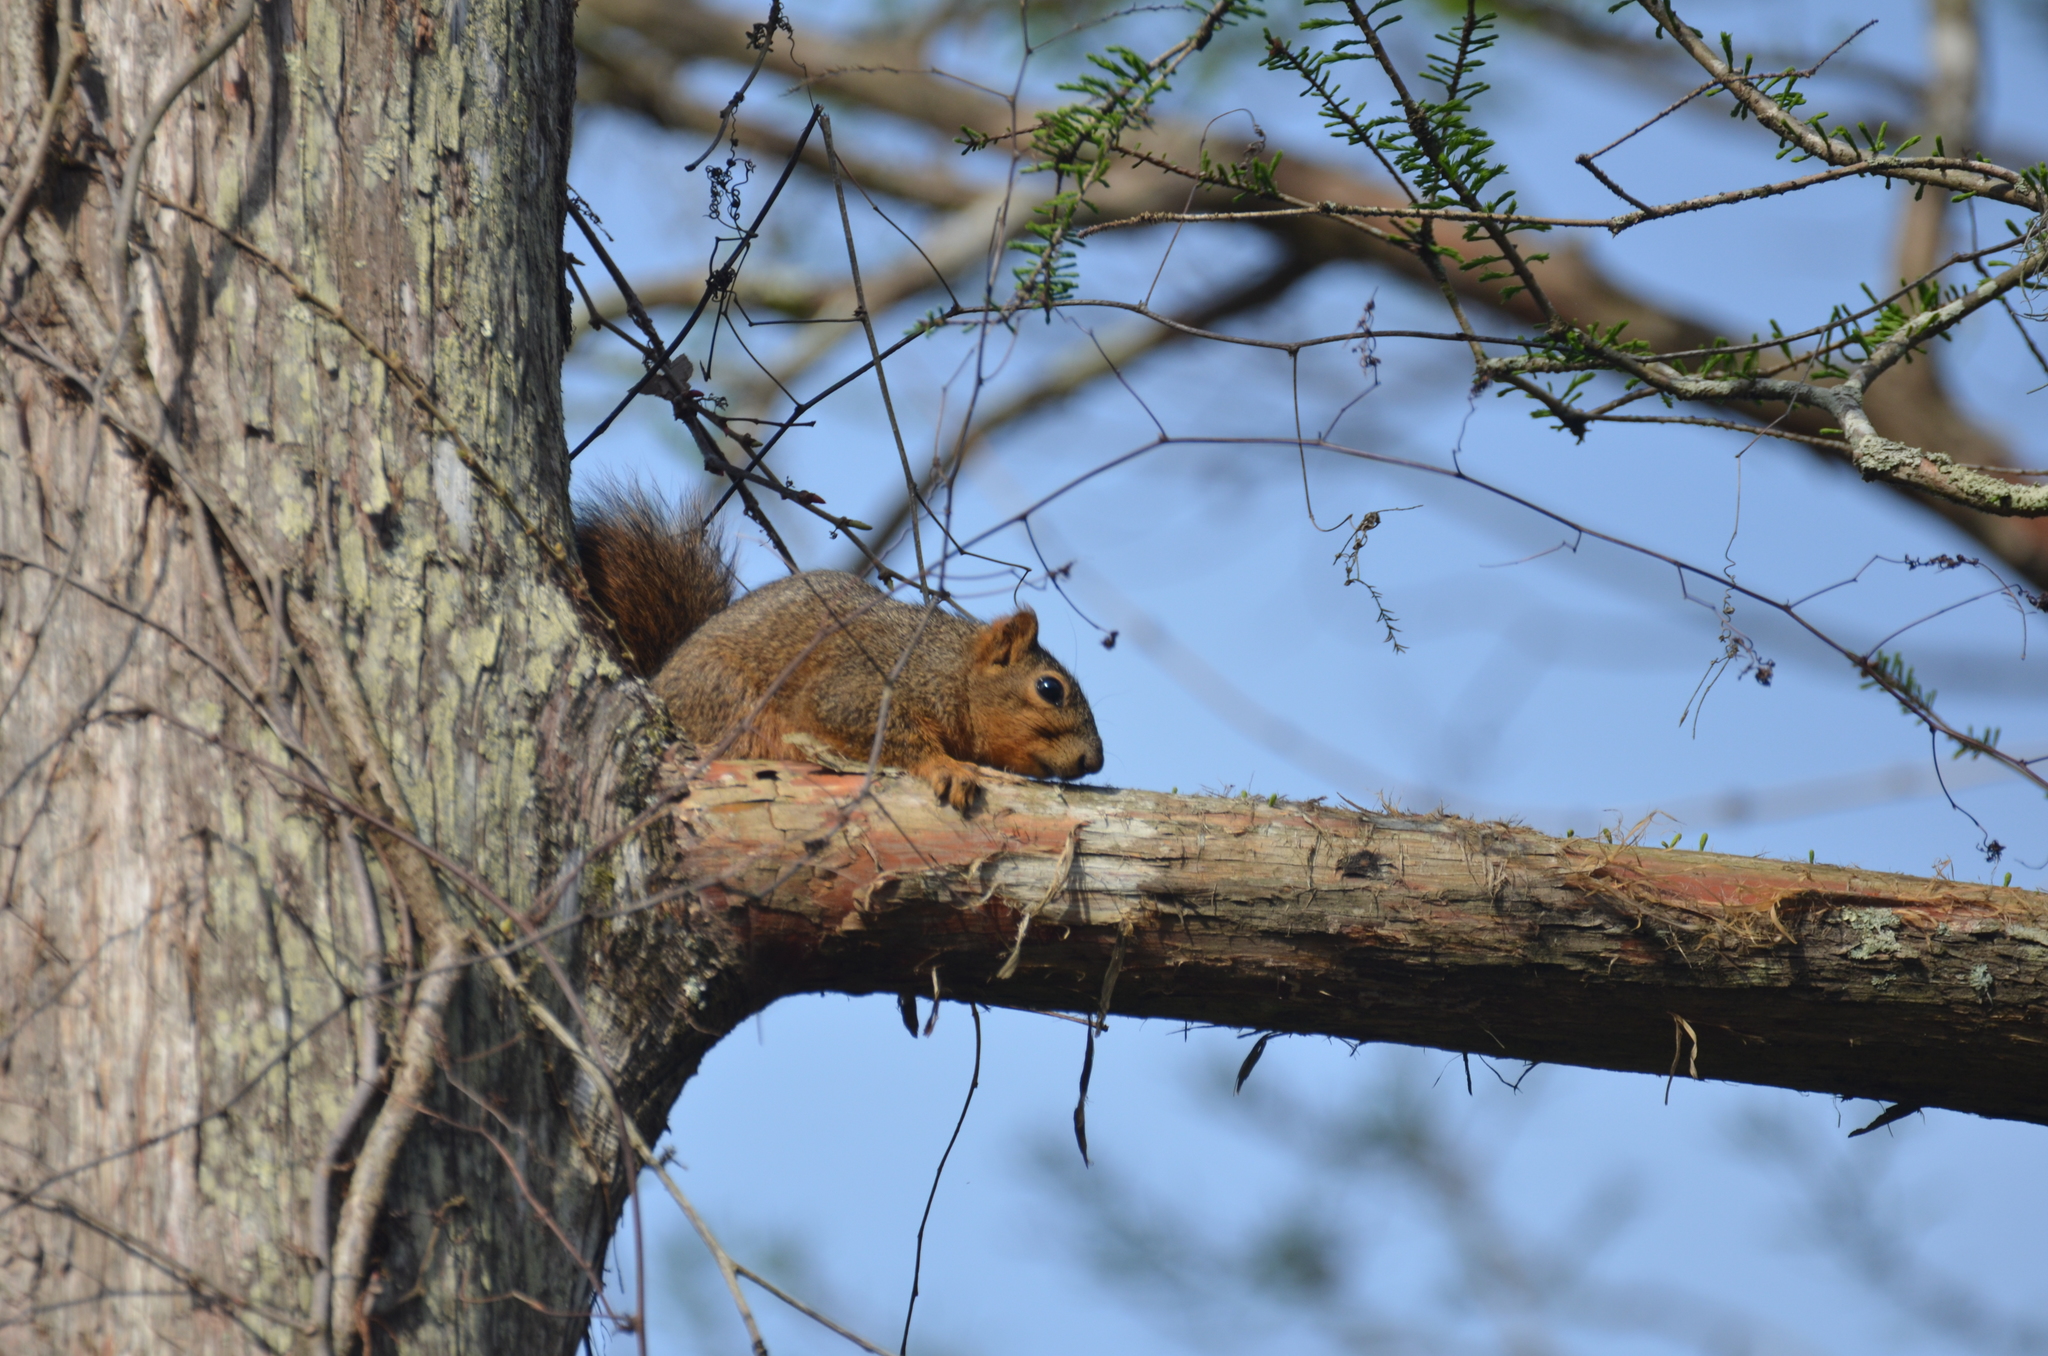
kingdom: Animalia
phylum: Chordata
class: Mammalia
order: Rodentia
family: Sciuridae
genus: Sciurus
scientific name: Sciurus niger
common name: Fox squirrel
